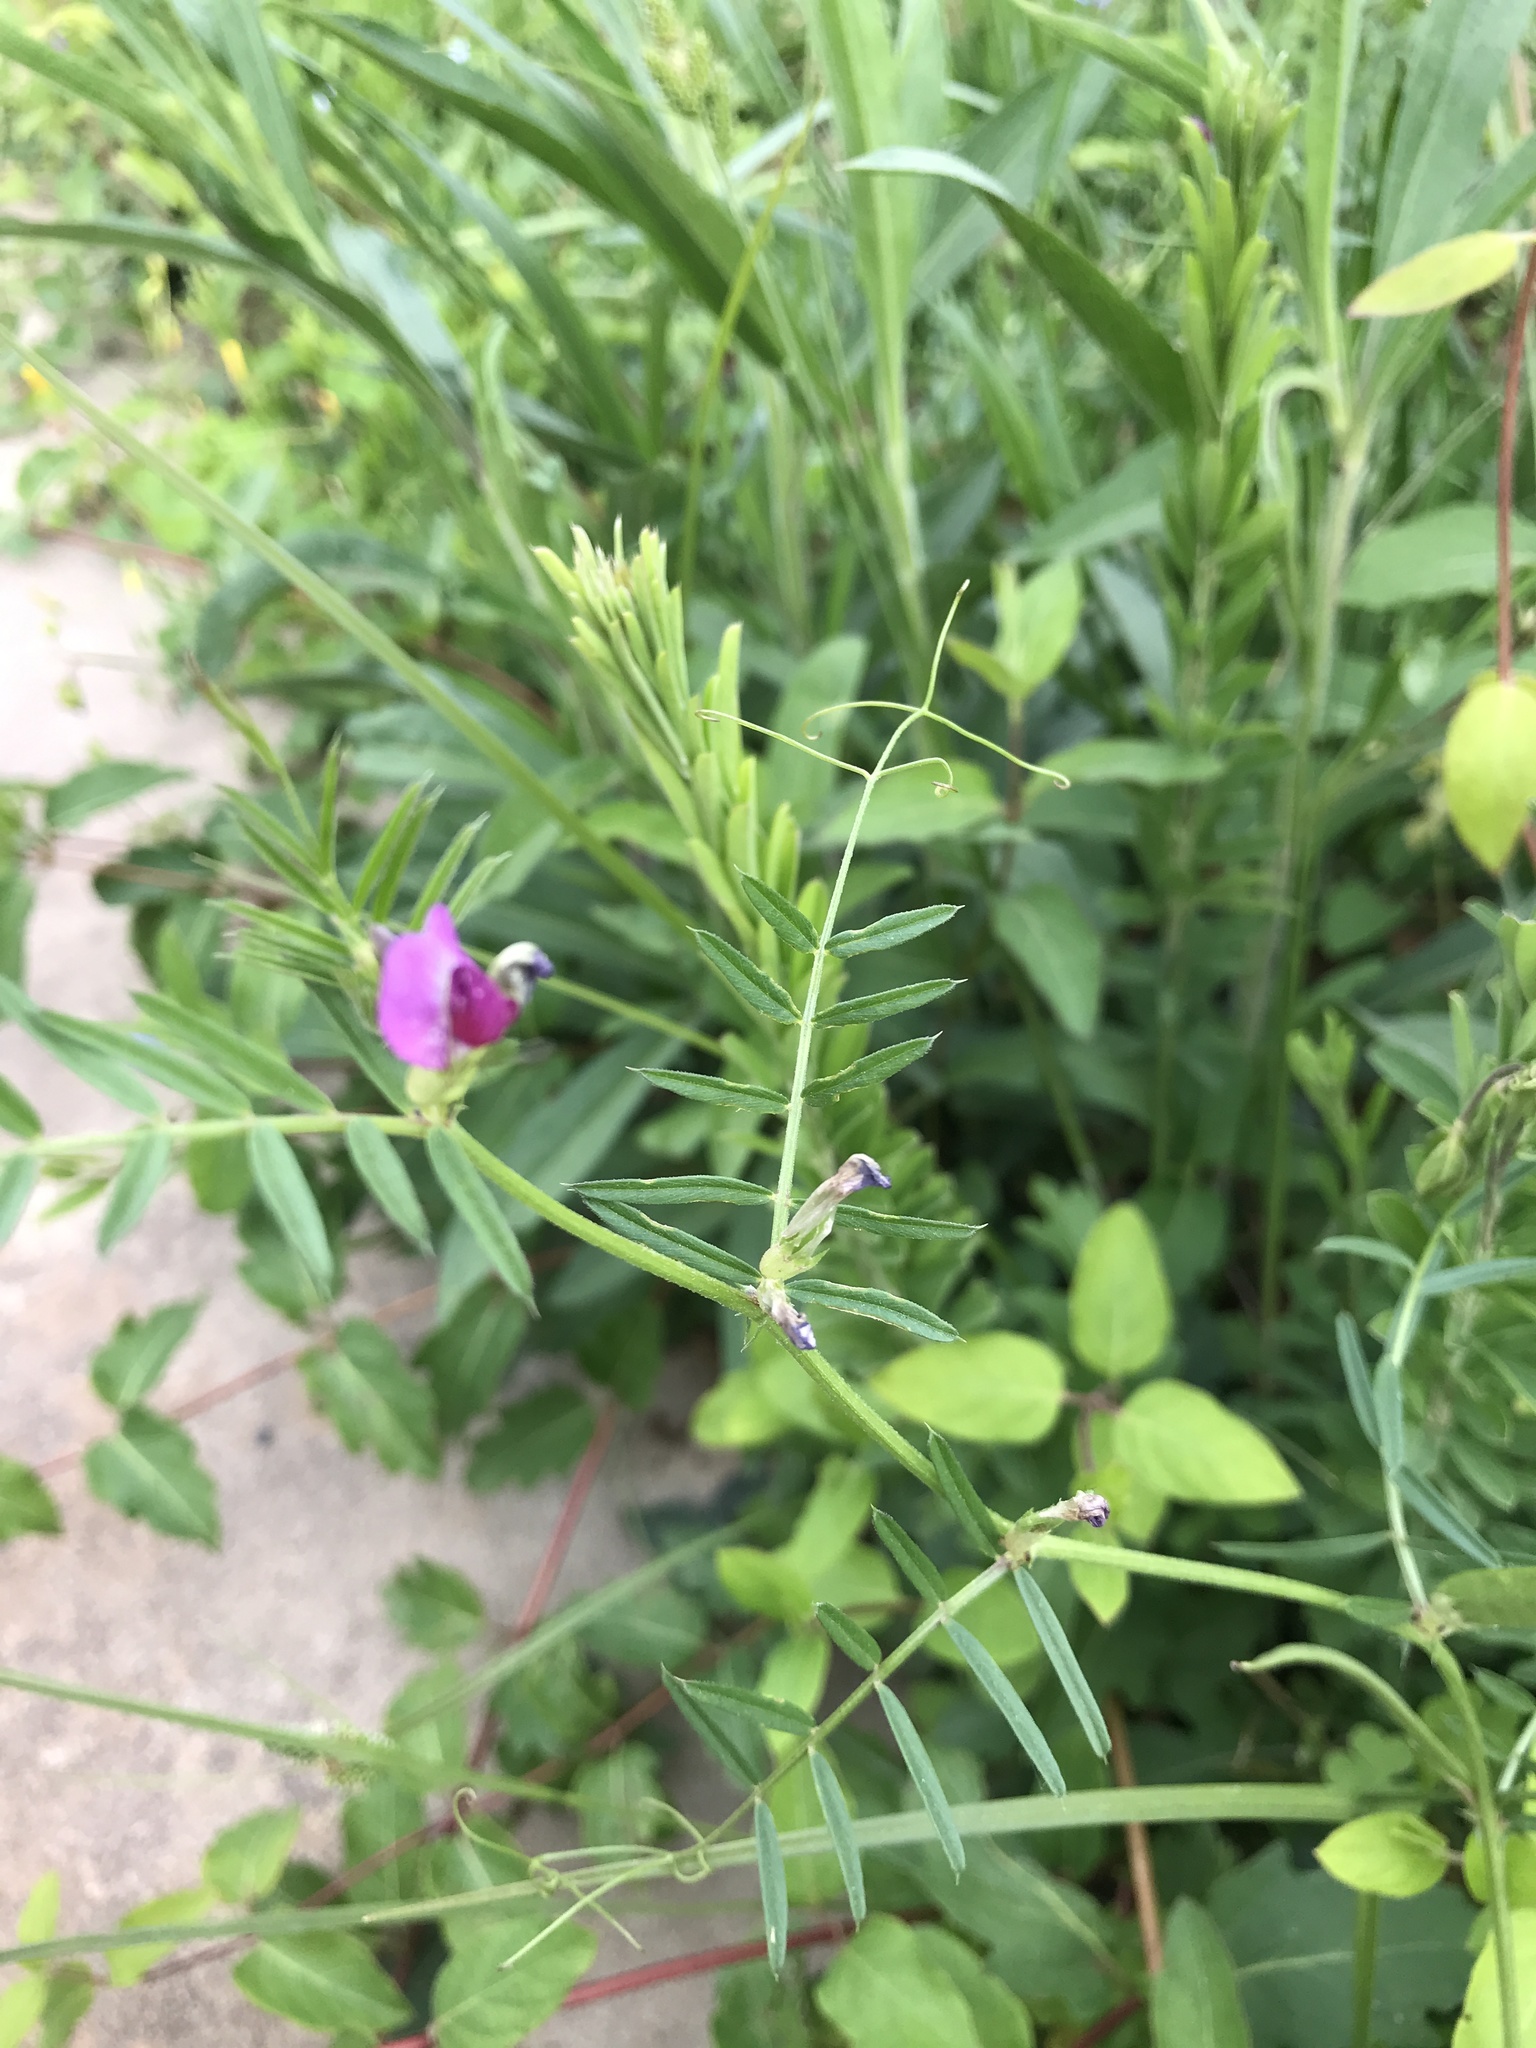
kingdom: Plantae
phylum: Tracheophyta
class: Magnoliopsida
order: Fabales
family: Fabaceae
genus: Vicia
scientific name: Vicia sativa
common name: Garden vetch
